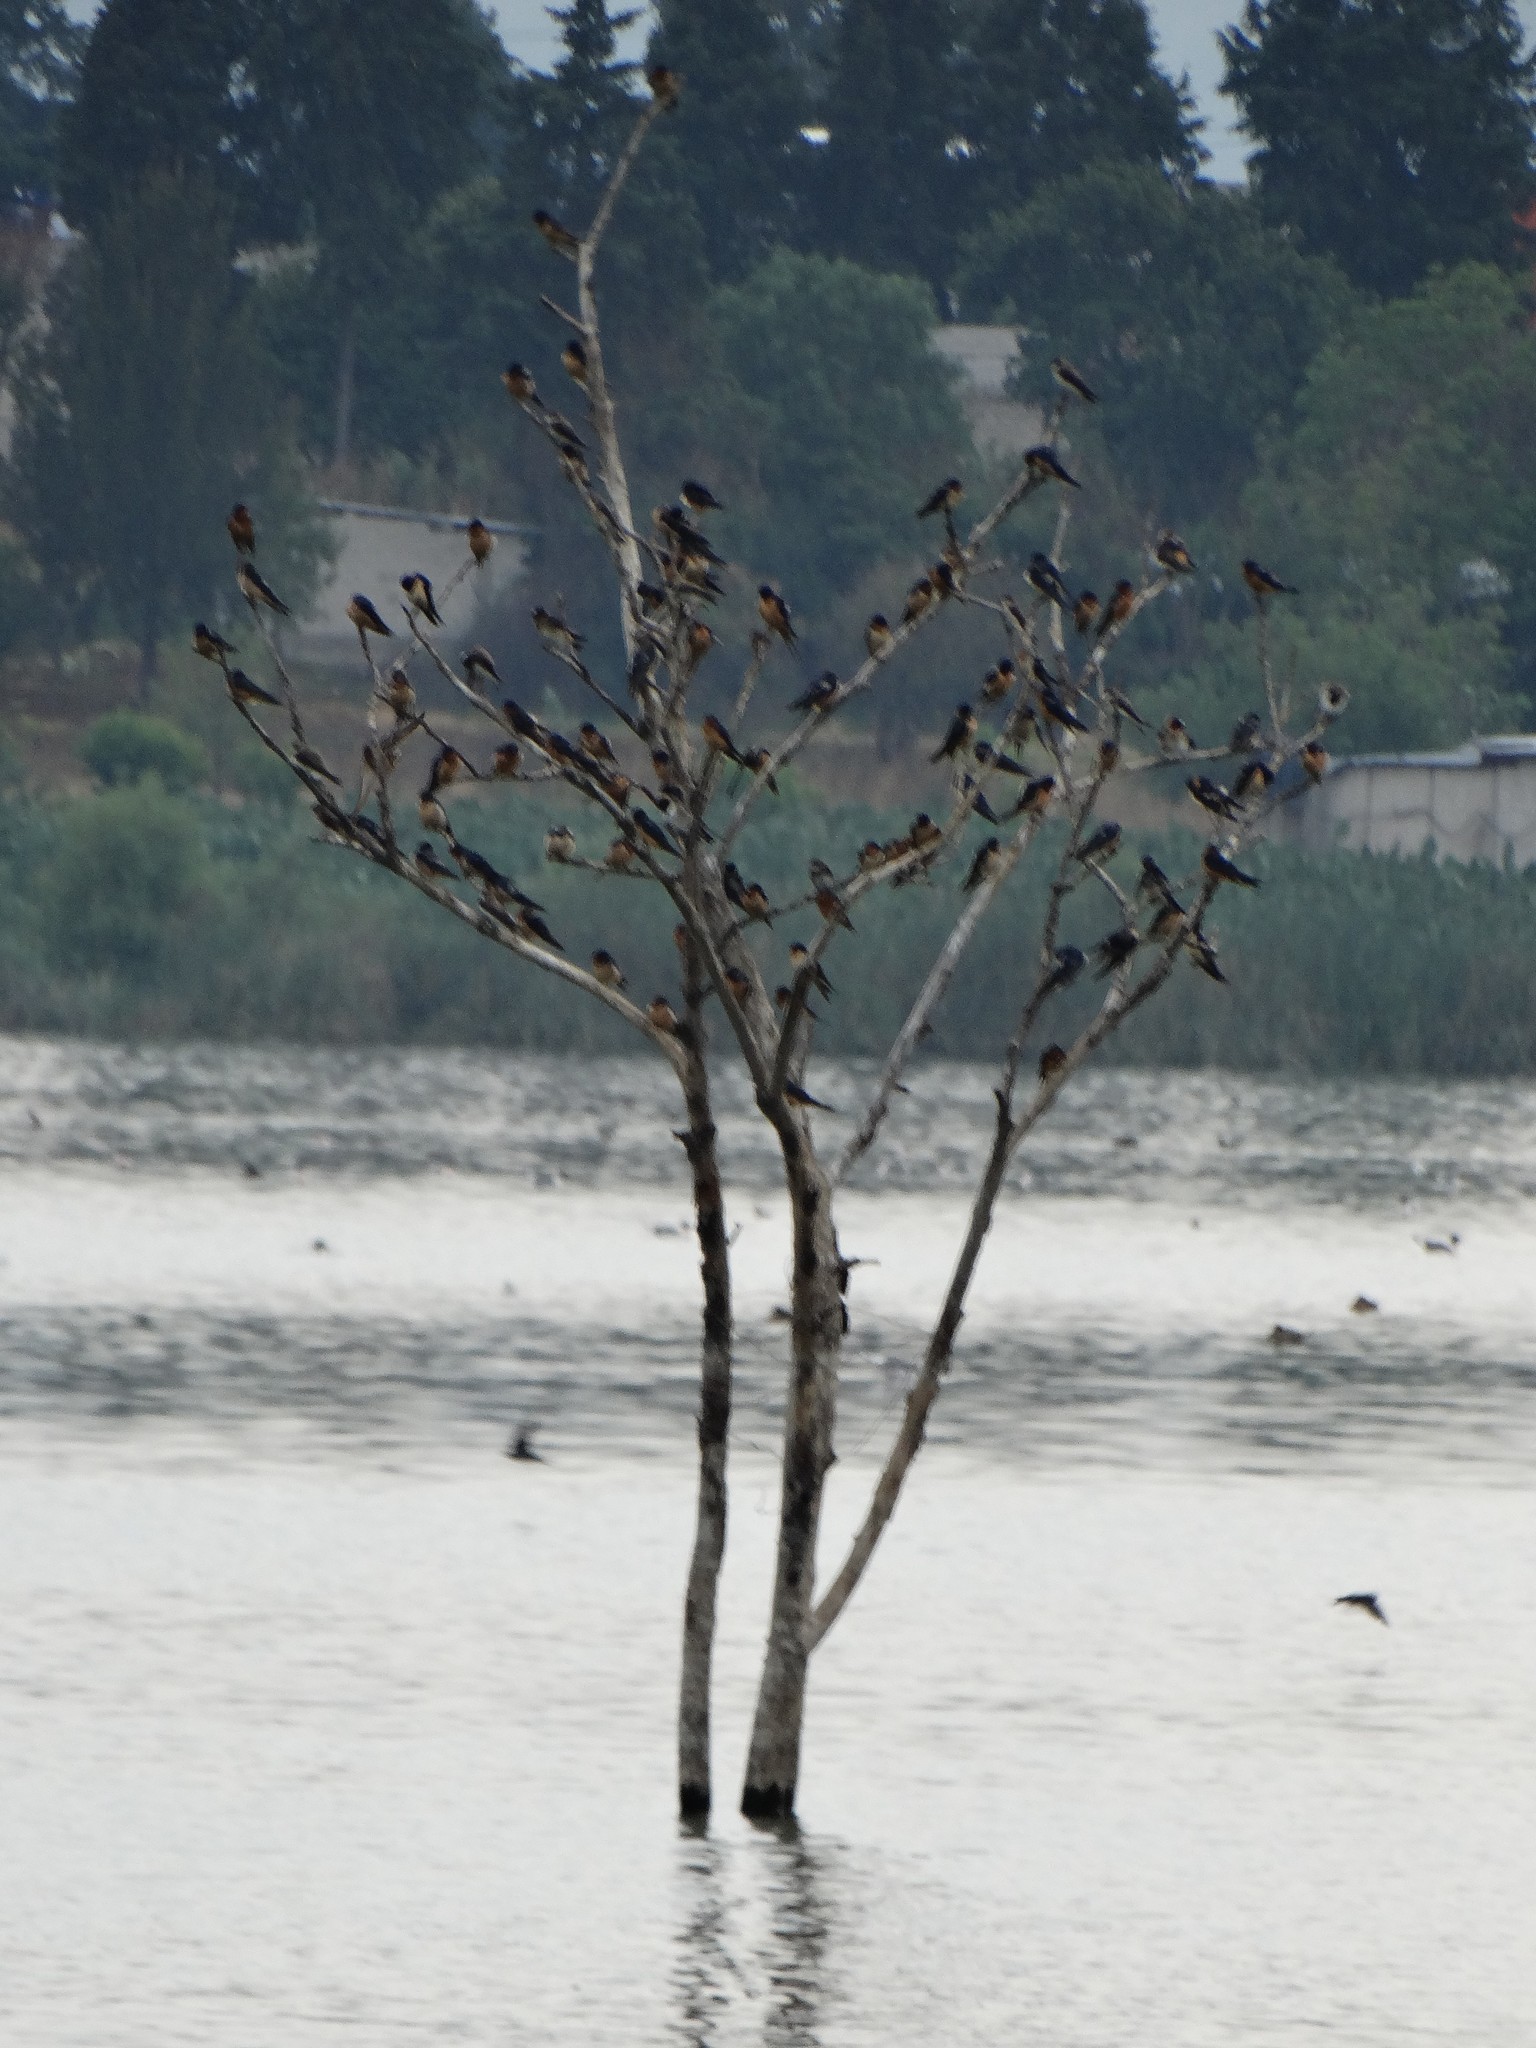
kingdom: Animalia
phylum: Chordata
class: Aves
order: Passeriformes
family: Hirundinidae
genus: Hirundo
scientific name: Hirundo rustica
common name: Barn swallow
